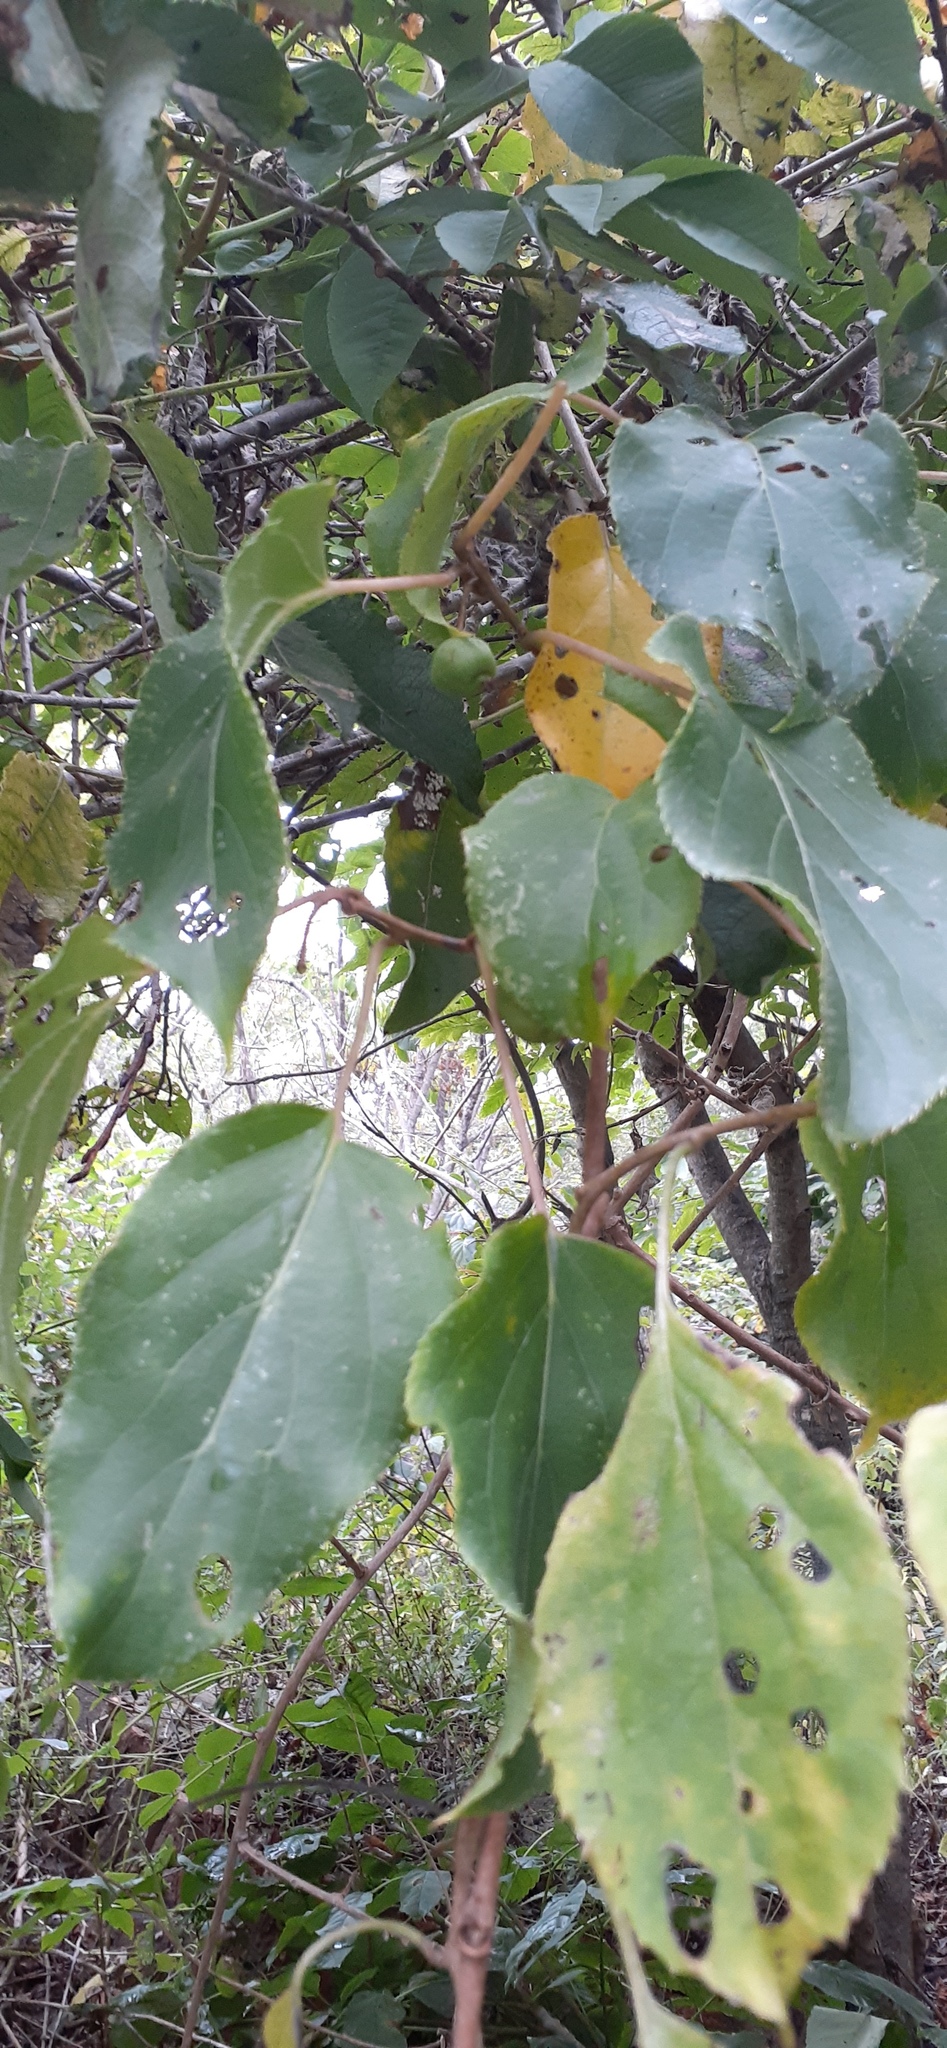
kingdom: Plantae
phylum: Tracheophyta
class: Magnoliopsida
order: Ericales
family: Actinidiaceae
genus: Actinidia
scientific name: Actinidia arguta
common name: Tara vine
